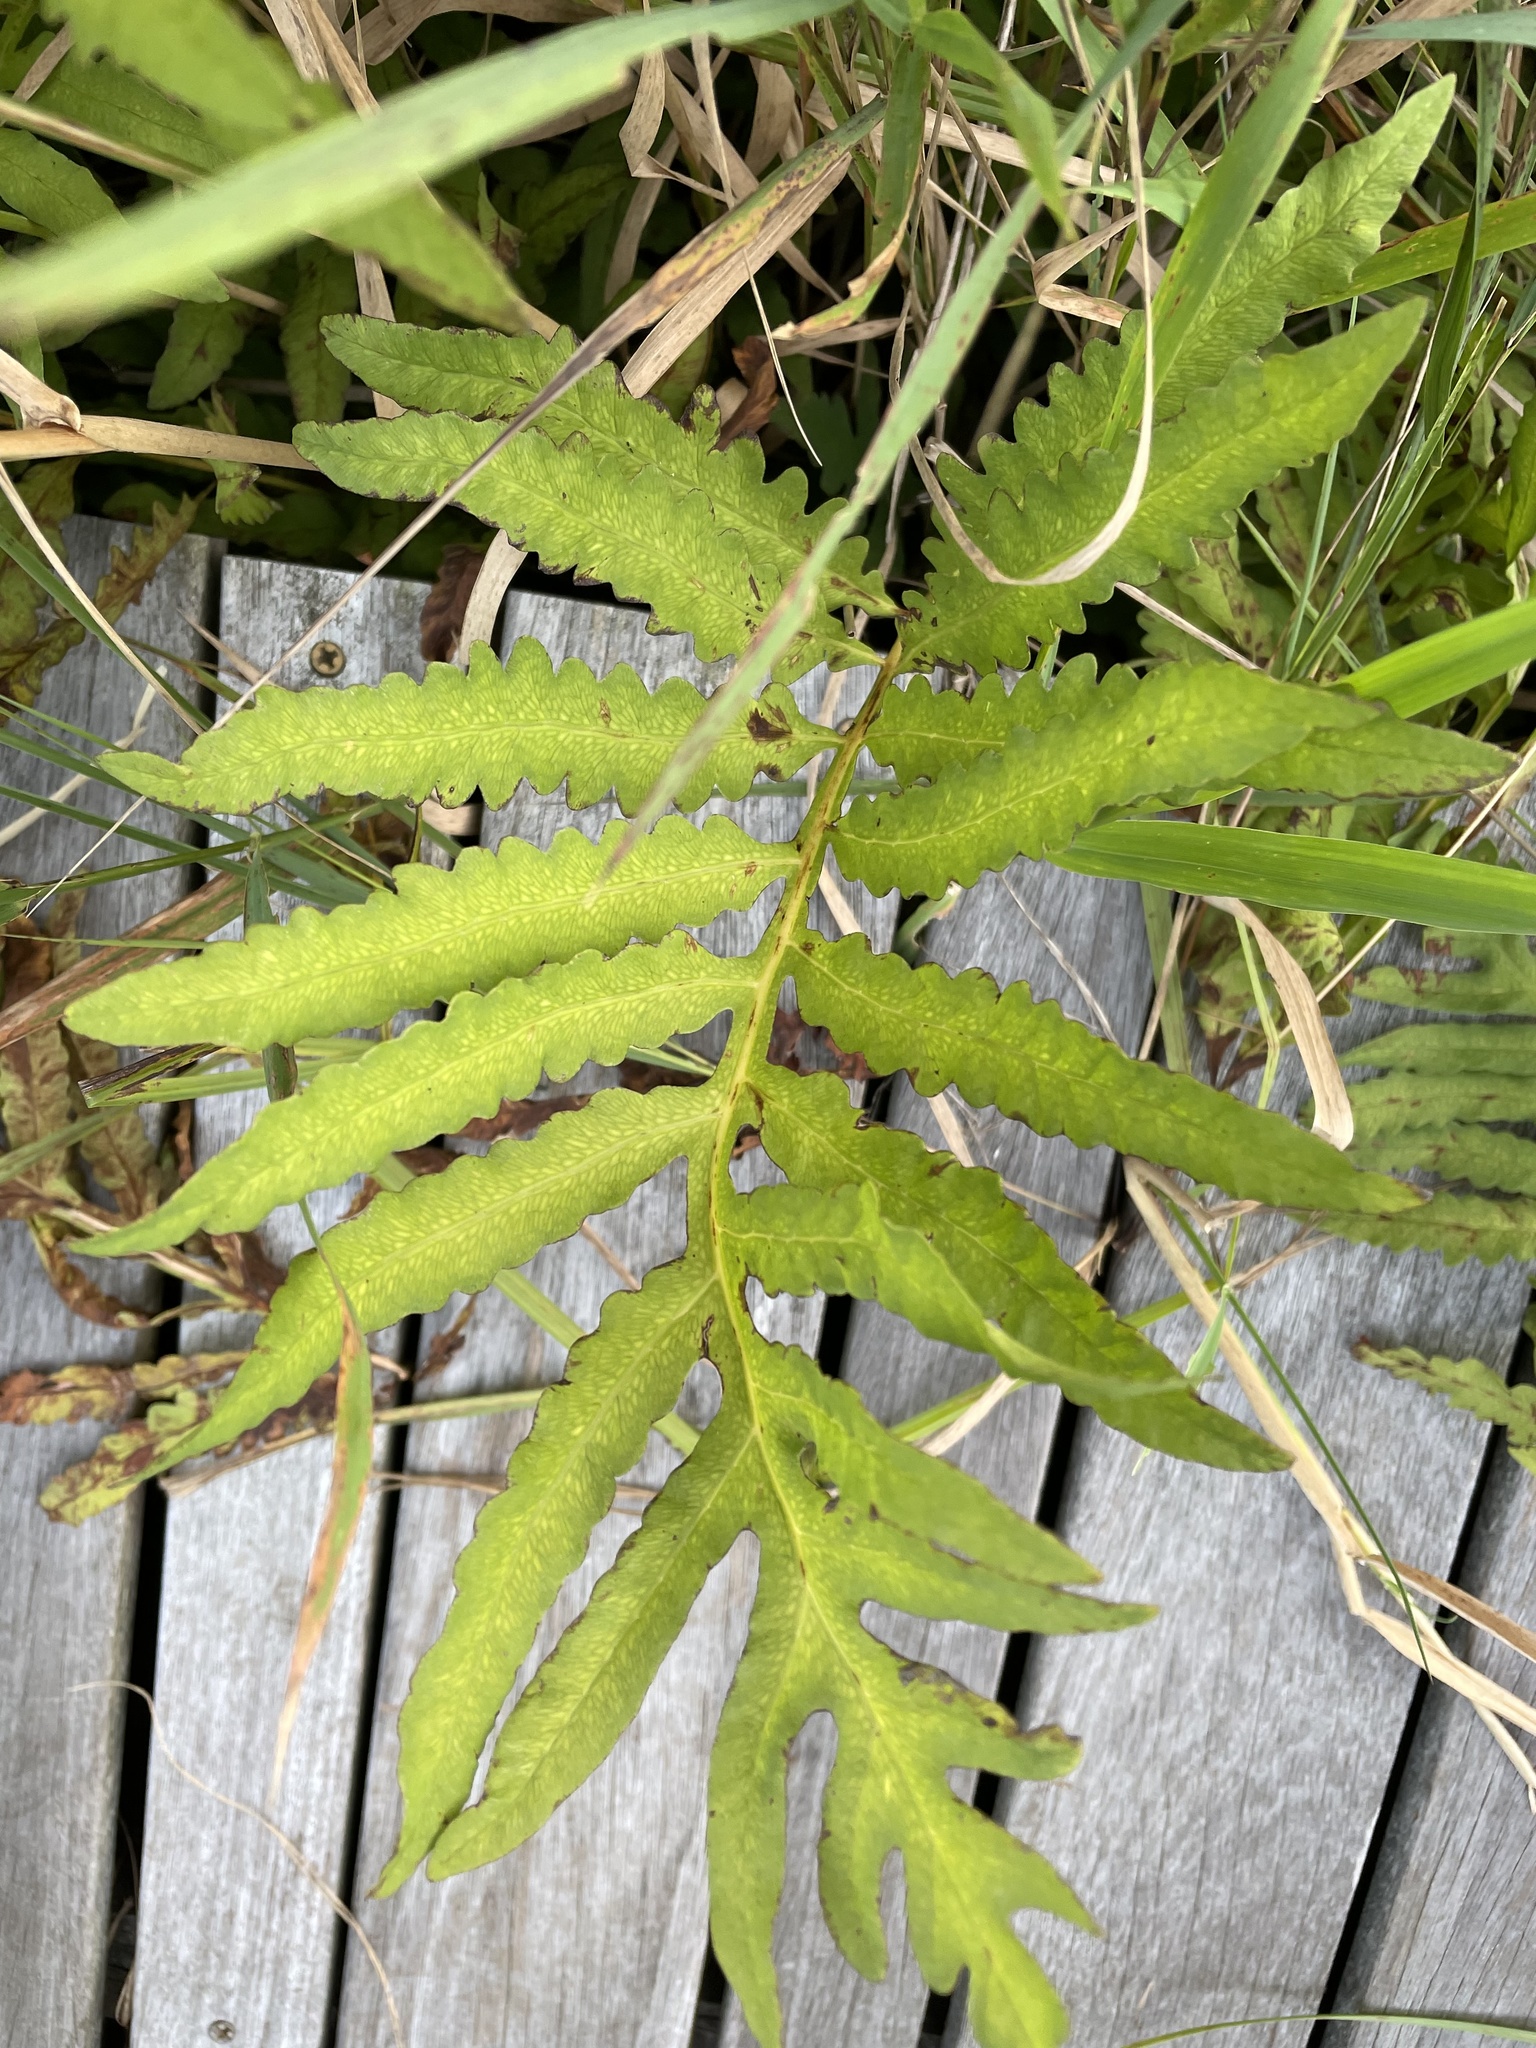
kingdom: Plantae
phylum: Tracheophyta
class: Polypodiopsida
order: Polypodiales
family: Onocleaceae
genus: Onoclea
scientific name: Onoclea sensibilis
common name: Sensitive fern
